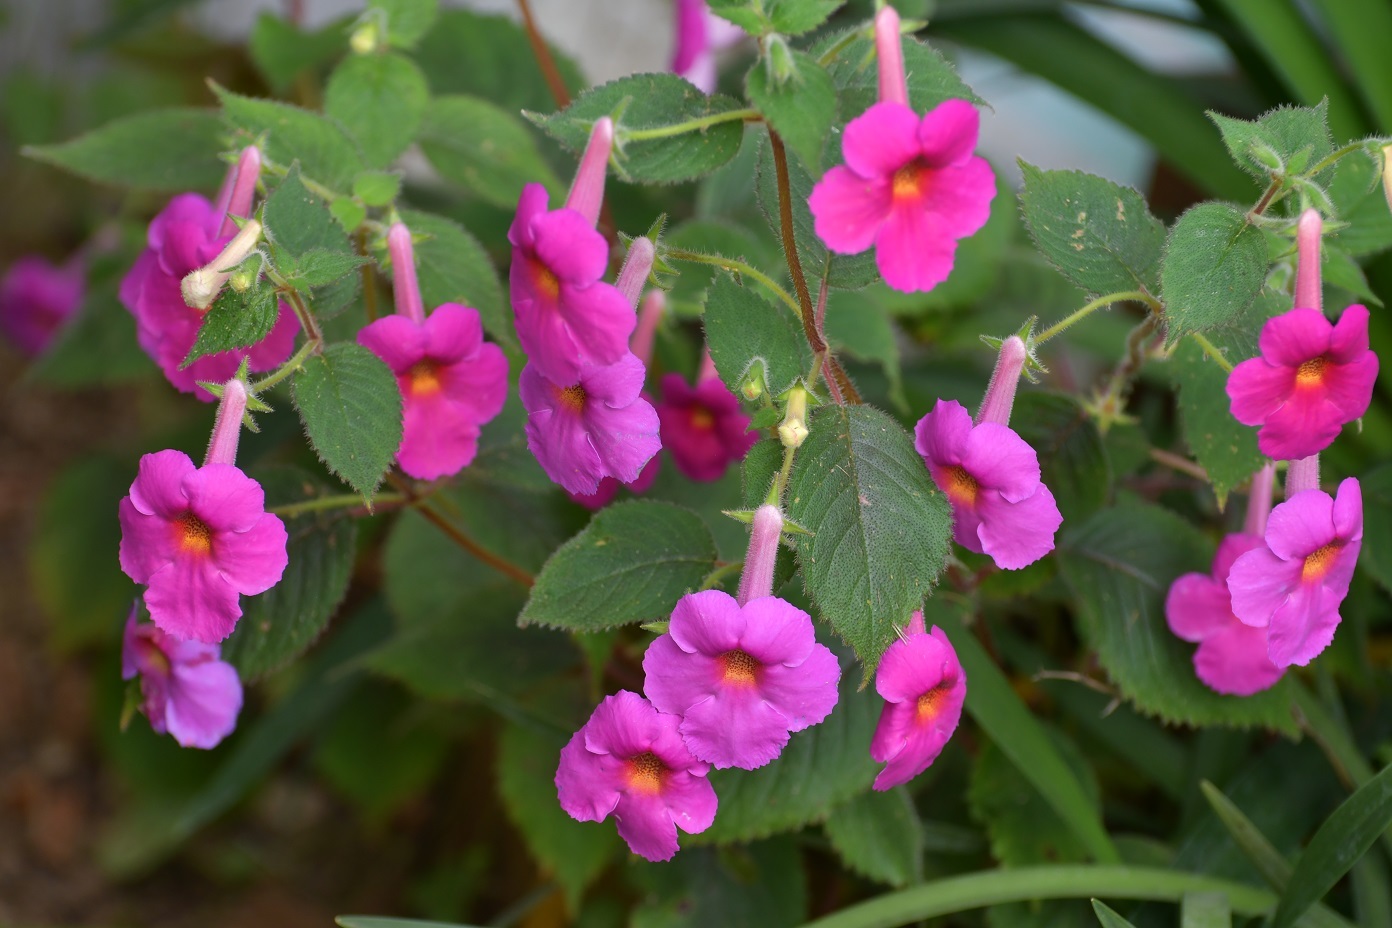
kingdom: Plantae
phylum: Tracheophyta
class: Magnoliopsida
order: Lamiales
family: Gesneriaceae
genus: Achimenes
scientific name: Achimenes skinneri
